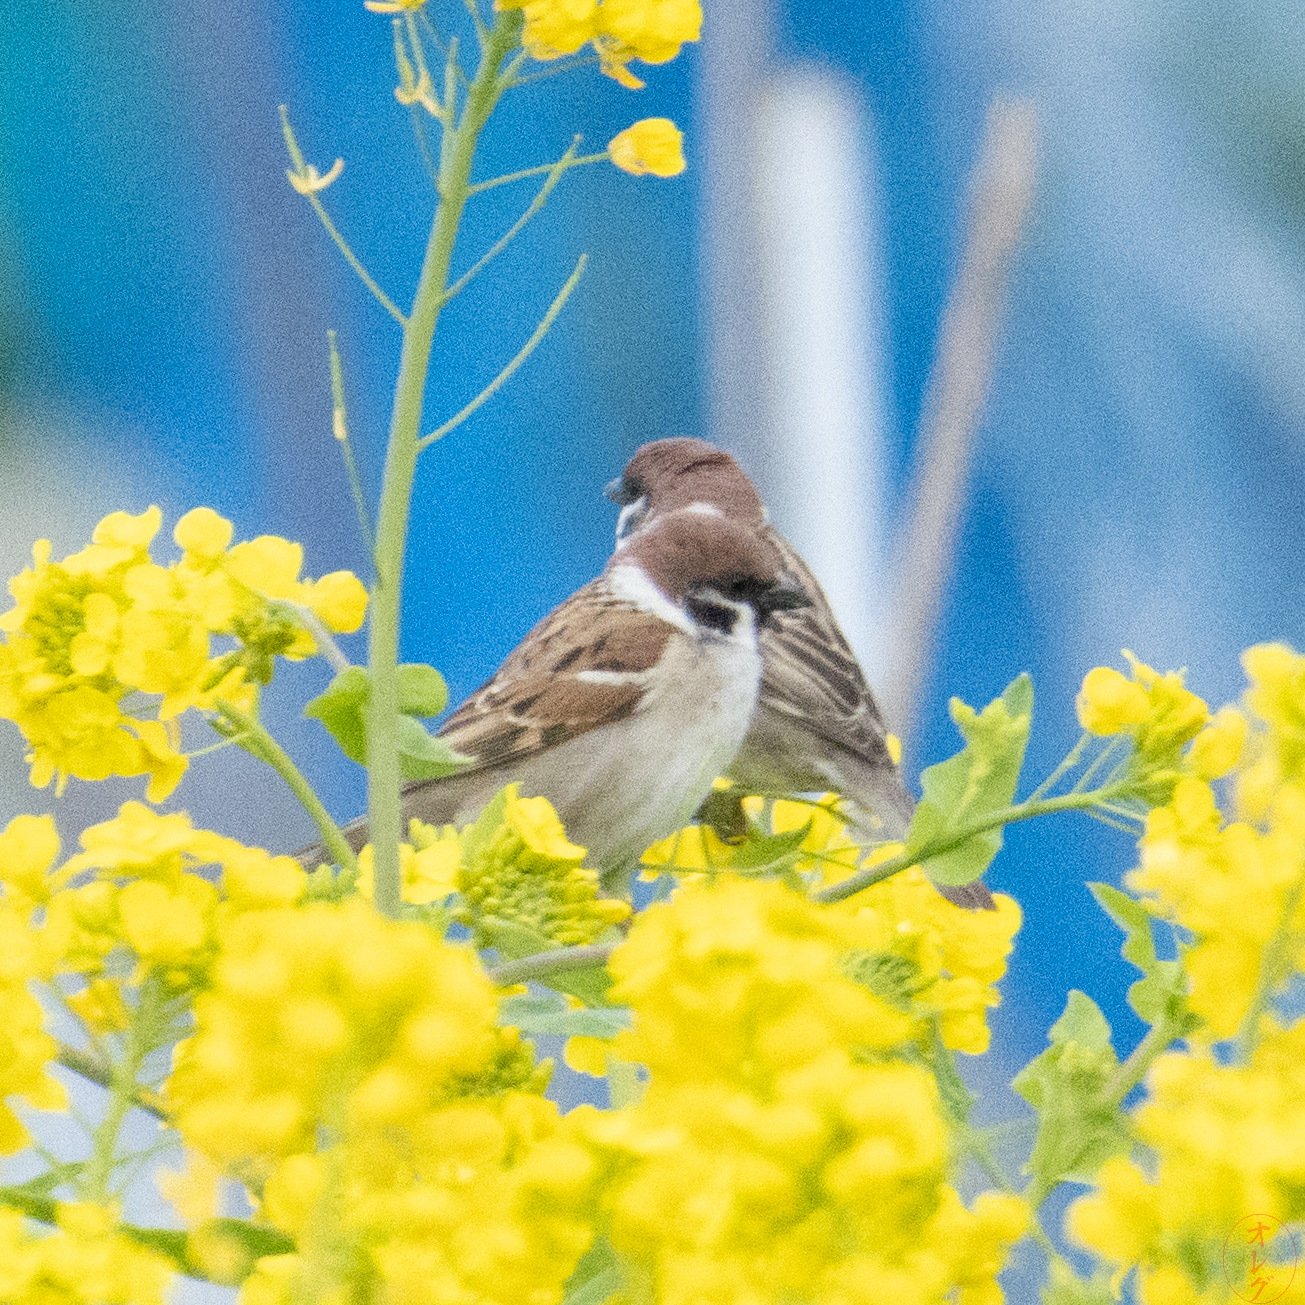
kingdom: Animalia
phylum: Chordata
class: Aves
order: Passeriformes
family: Passeridae
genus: Passer
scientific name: Passer montanus
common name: Eurasian tree sparrow
